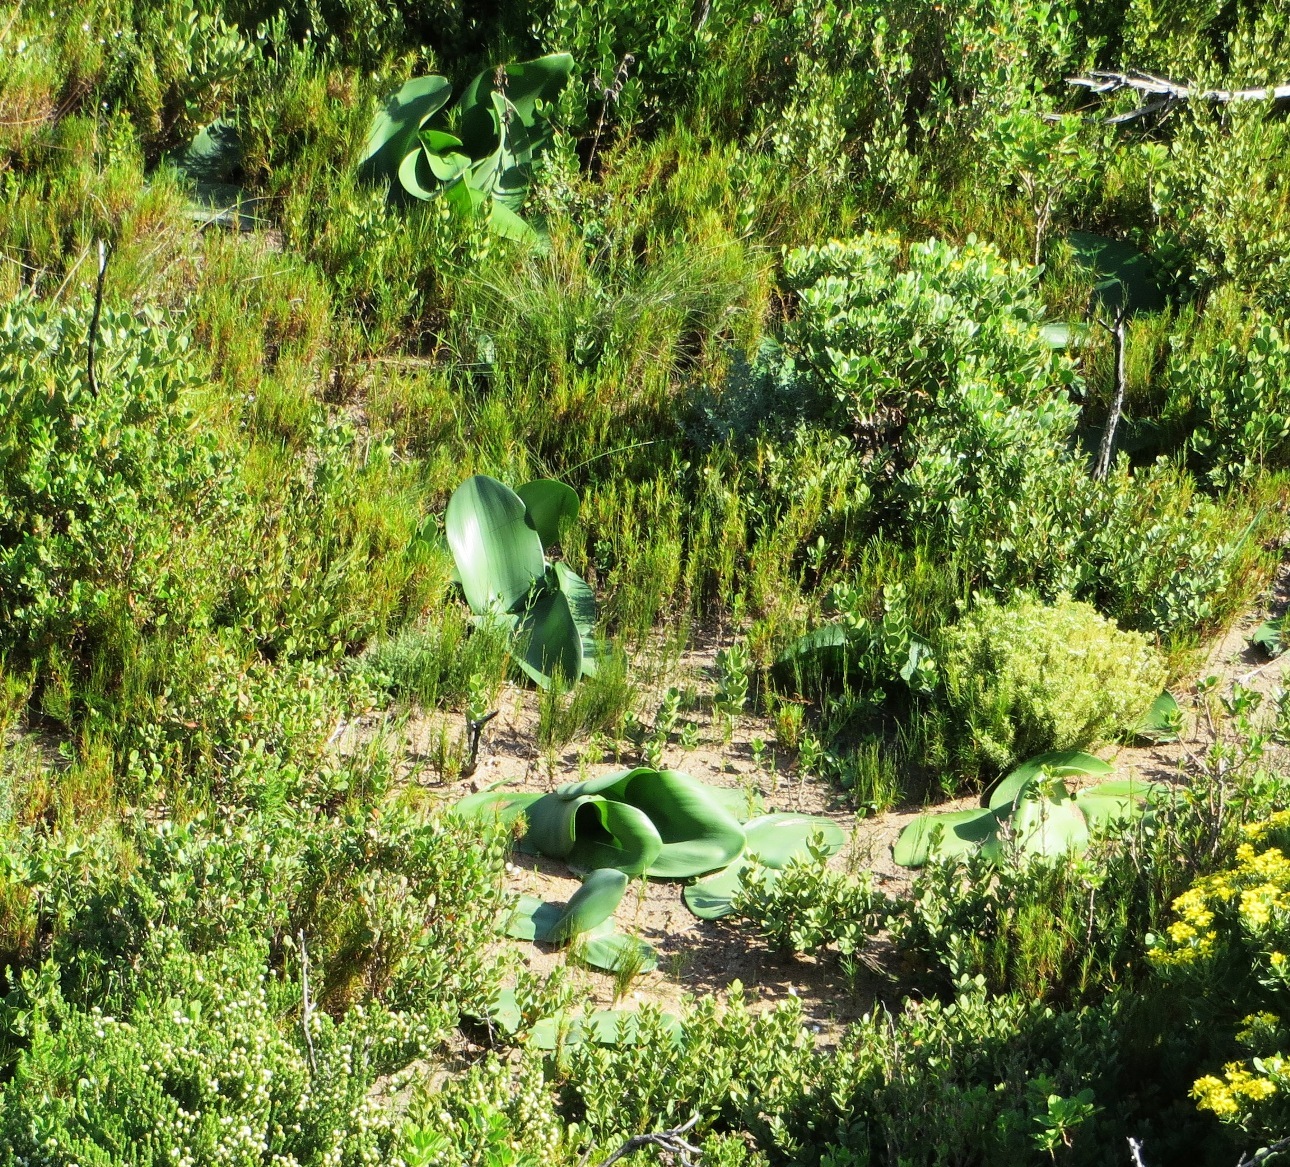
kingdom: Plantae
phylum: Tracheophyta
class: Liliopsida
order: Asparagales
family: Amaryllidaceae
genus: Haemanthus
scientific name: Haemanthus coccineus
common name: Cape-tulip
